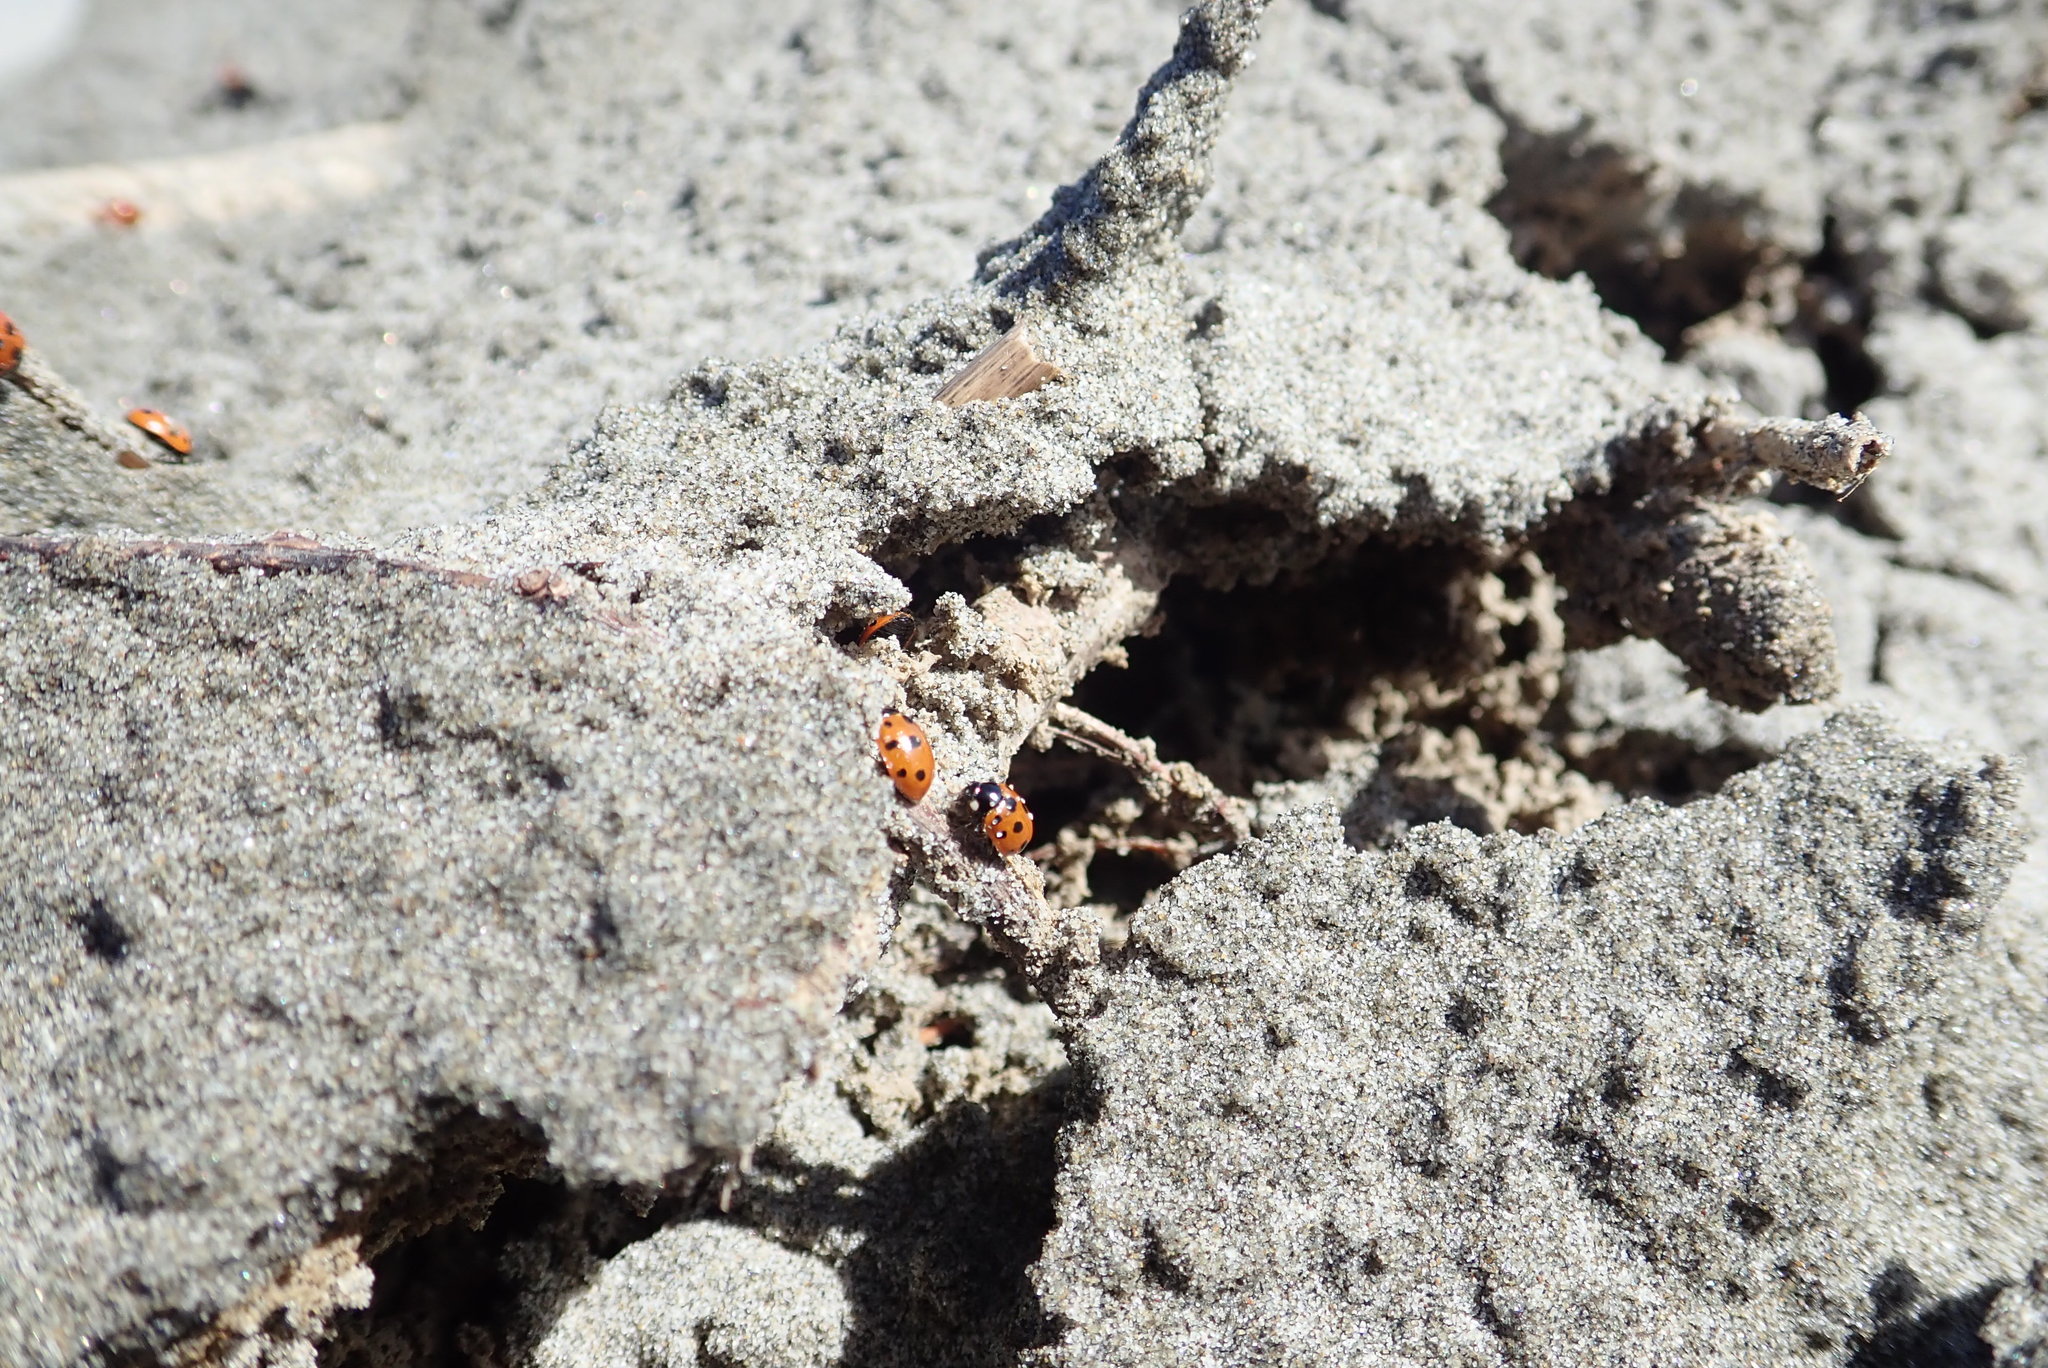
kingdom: Animalia
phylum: Arthropoda
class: Insecta
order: Coleoptera
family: Coccinellidae
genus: Coccinella
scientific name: Coccinella undecimpunctata
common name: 11-spot ladybird
